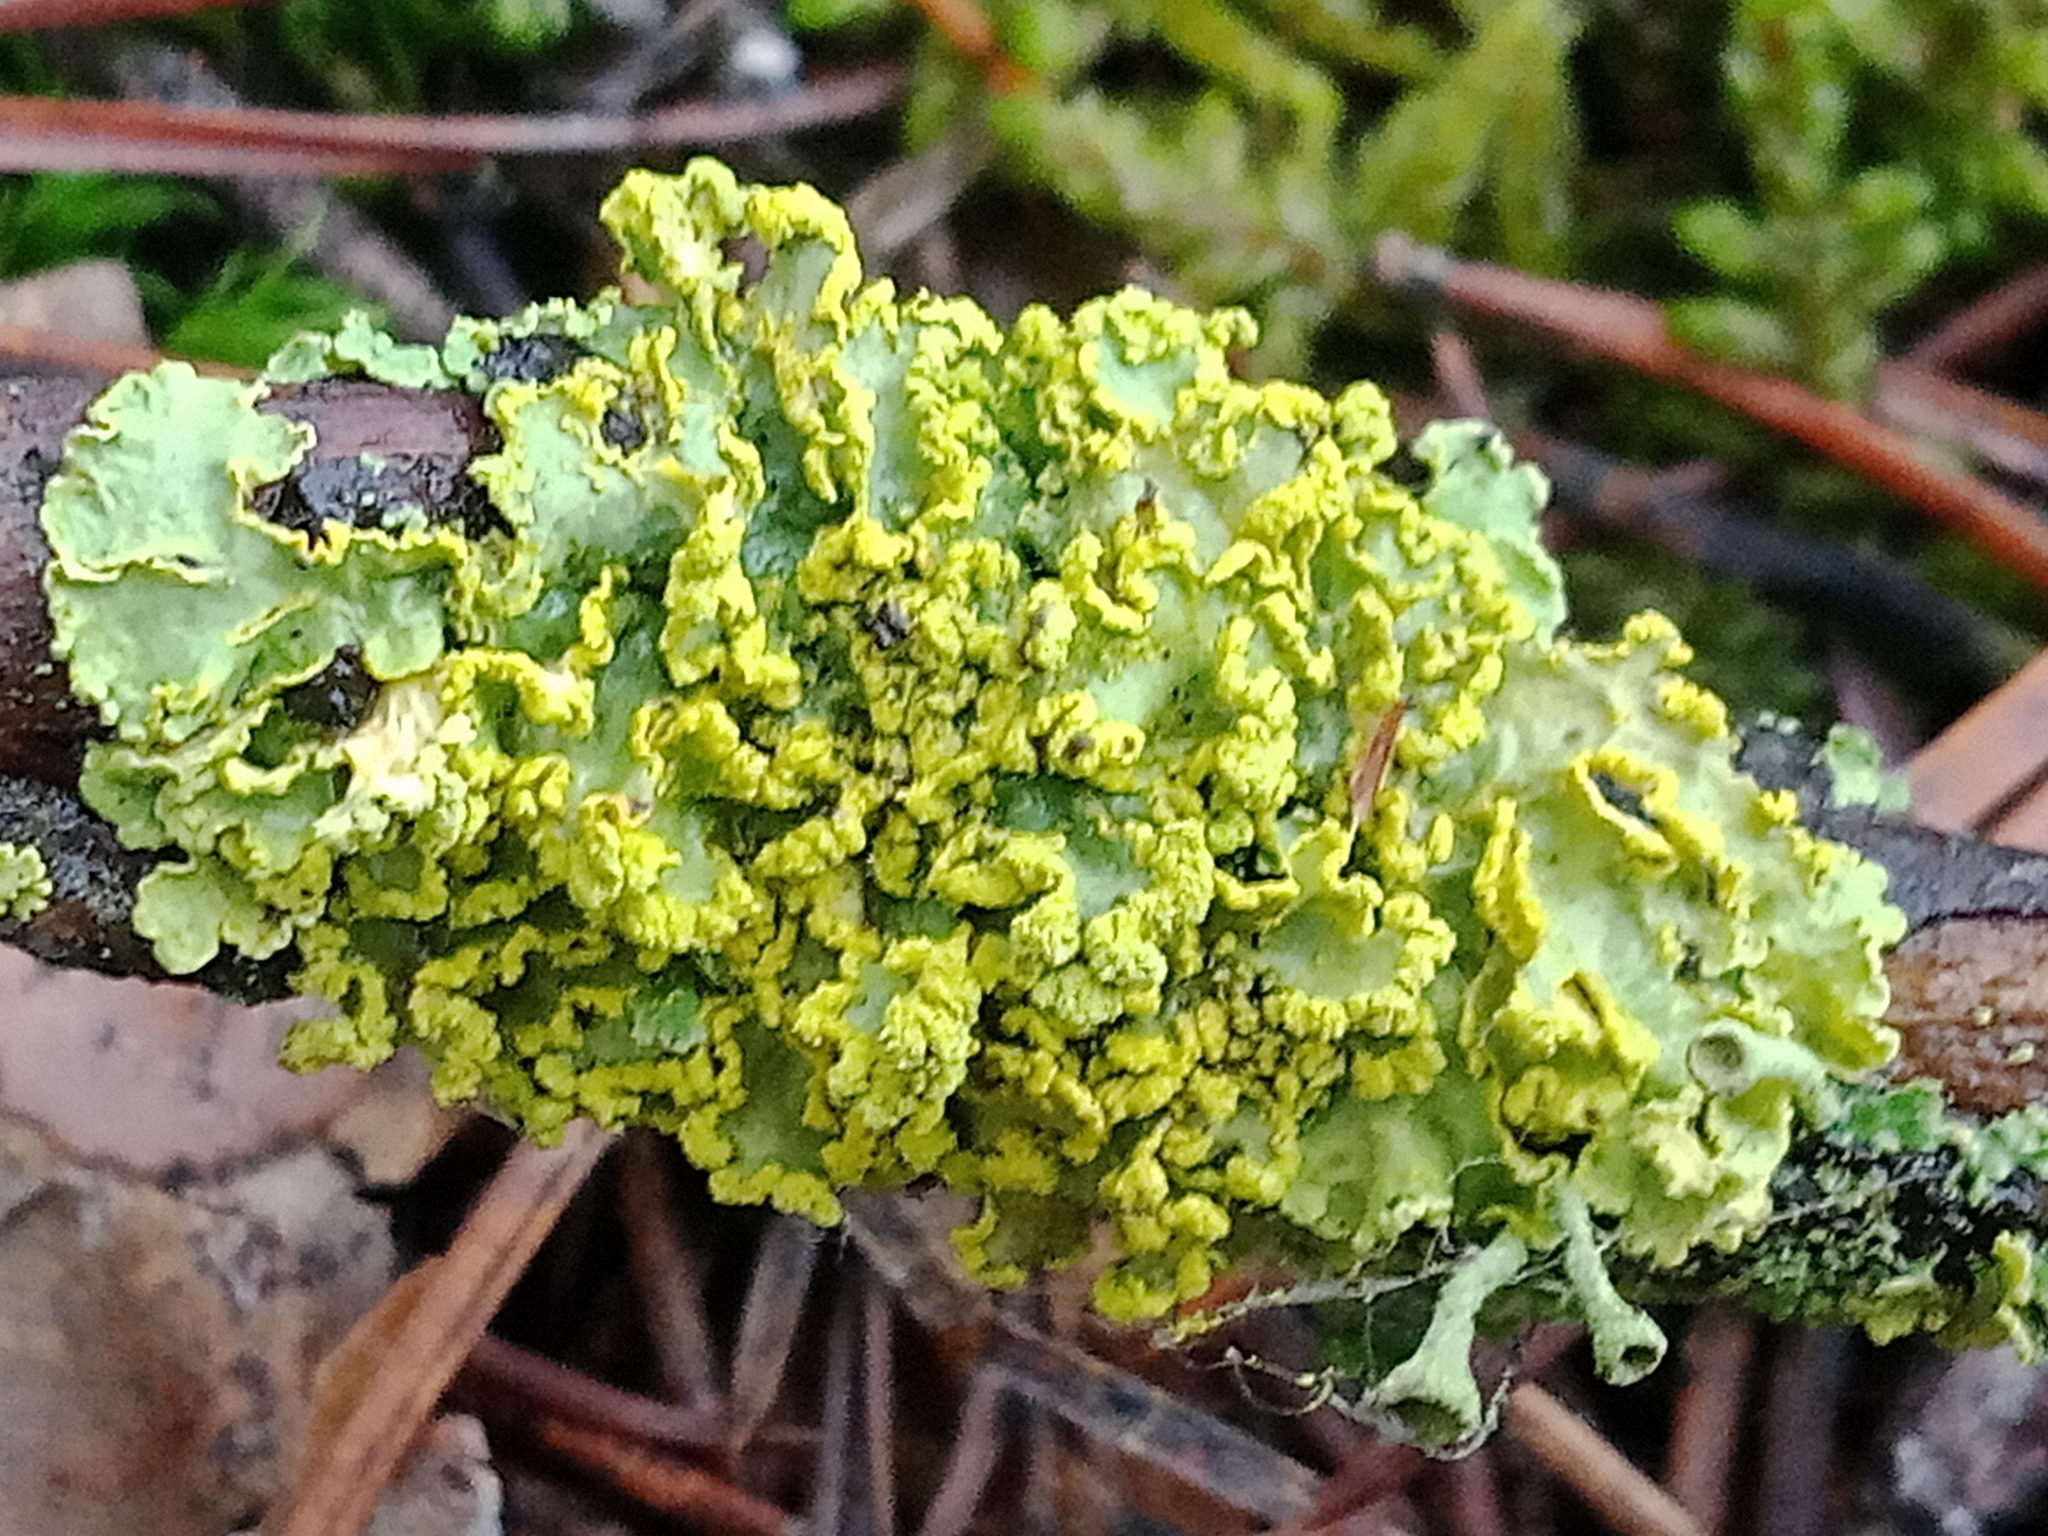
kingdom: Fungi
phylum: Ascomycota
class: Lecanoromycetes
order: Lecanorales
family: Parmeliaceae
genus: Vulpicida
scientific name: Vulpicida pinastri
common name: Powdered sunshine lichen
